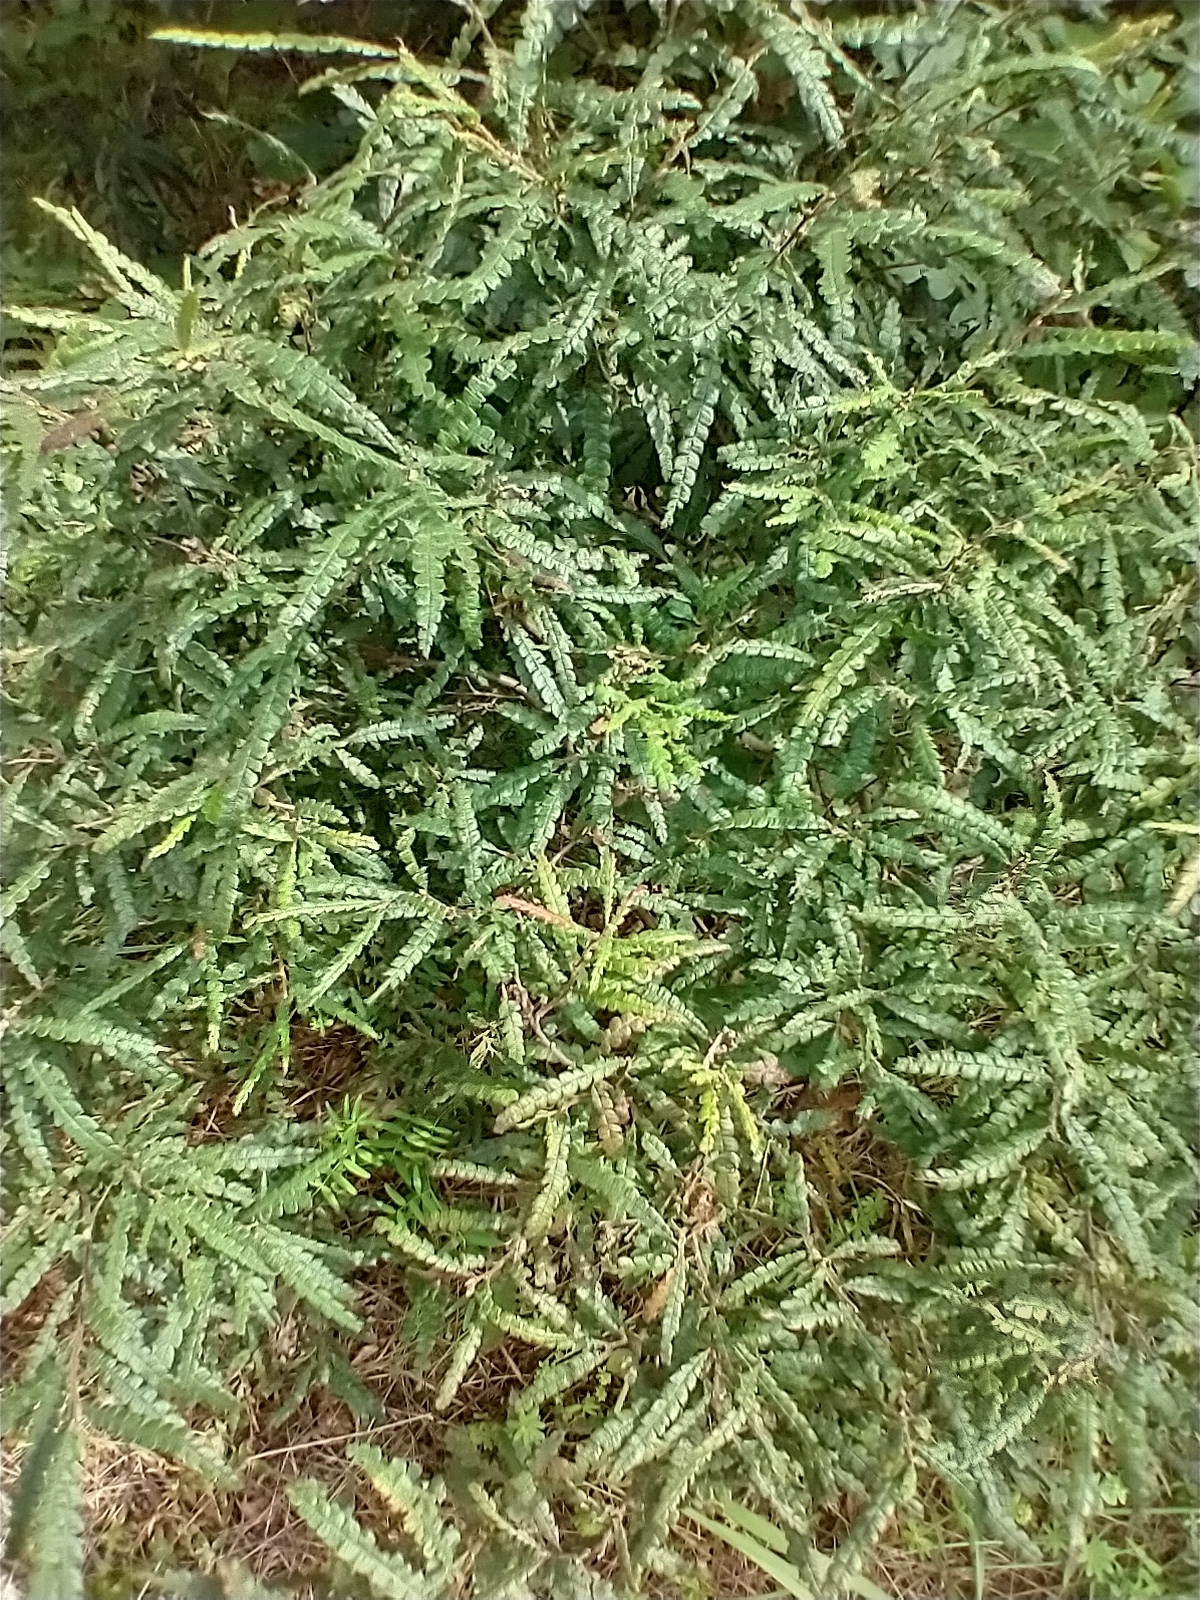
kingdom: Plantae
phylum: Tracheophyta
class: Magnoliopsida
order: Fagales
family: Myricaceae
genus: Comptonia
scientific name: Comptonia peregrina
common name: Sweet-fern
